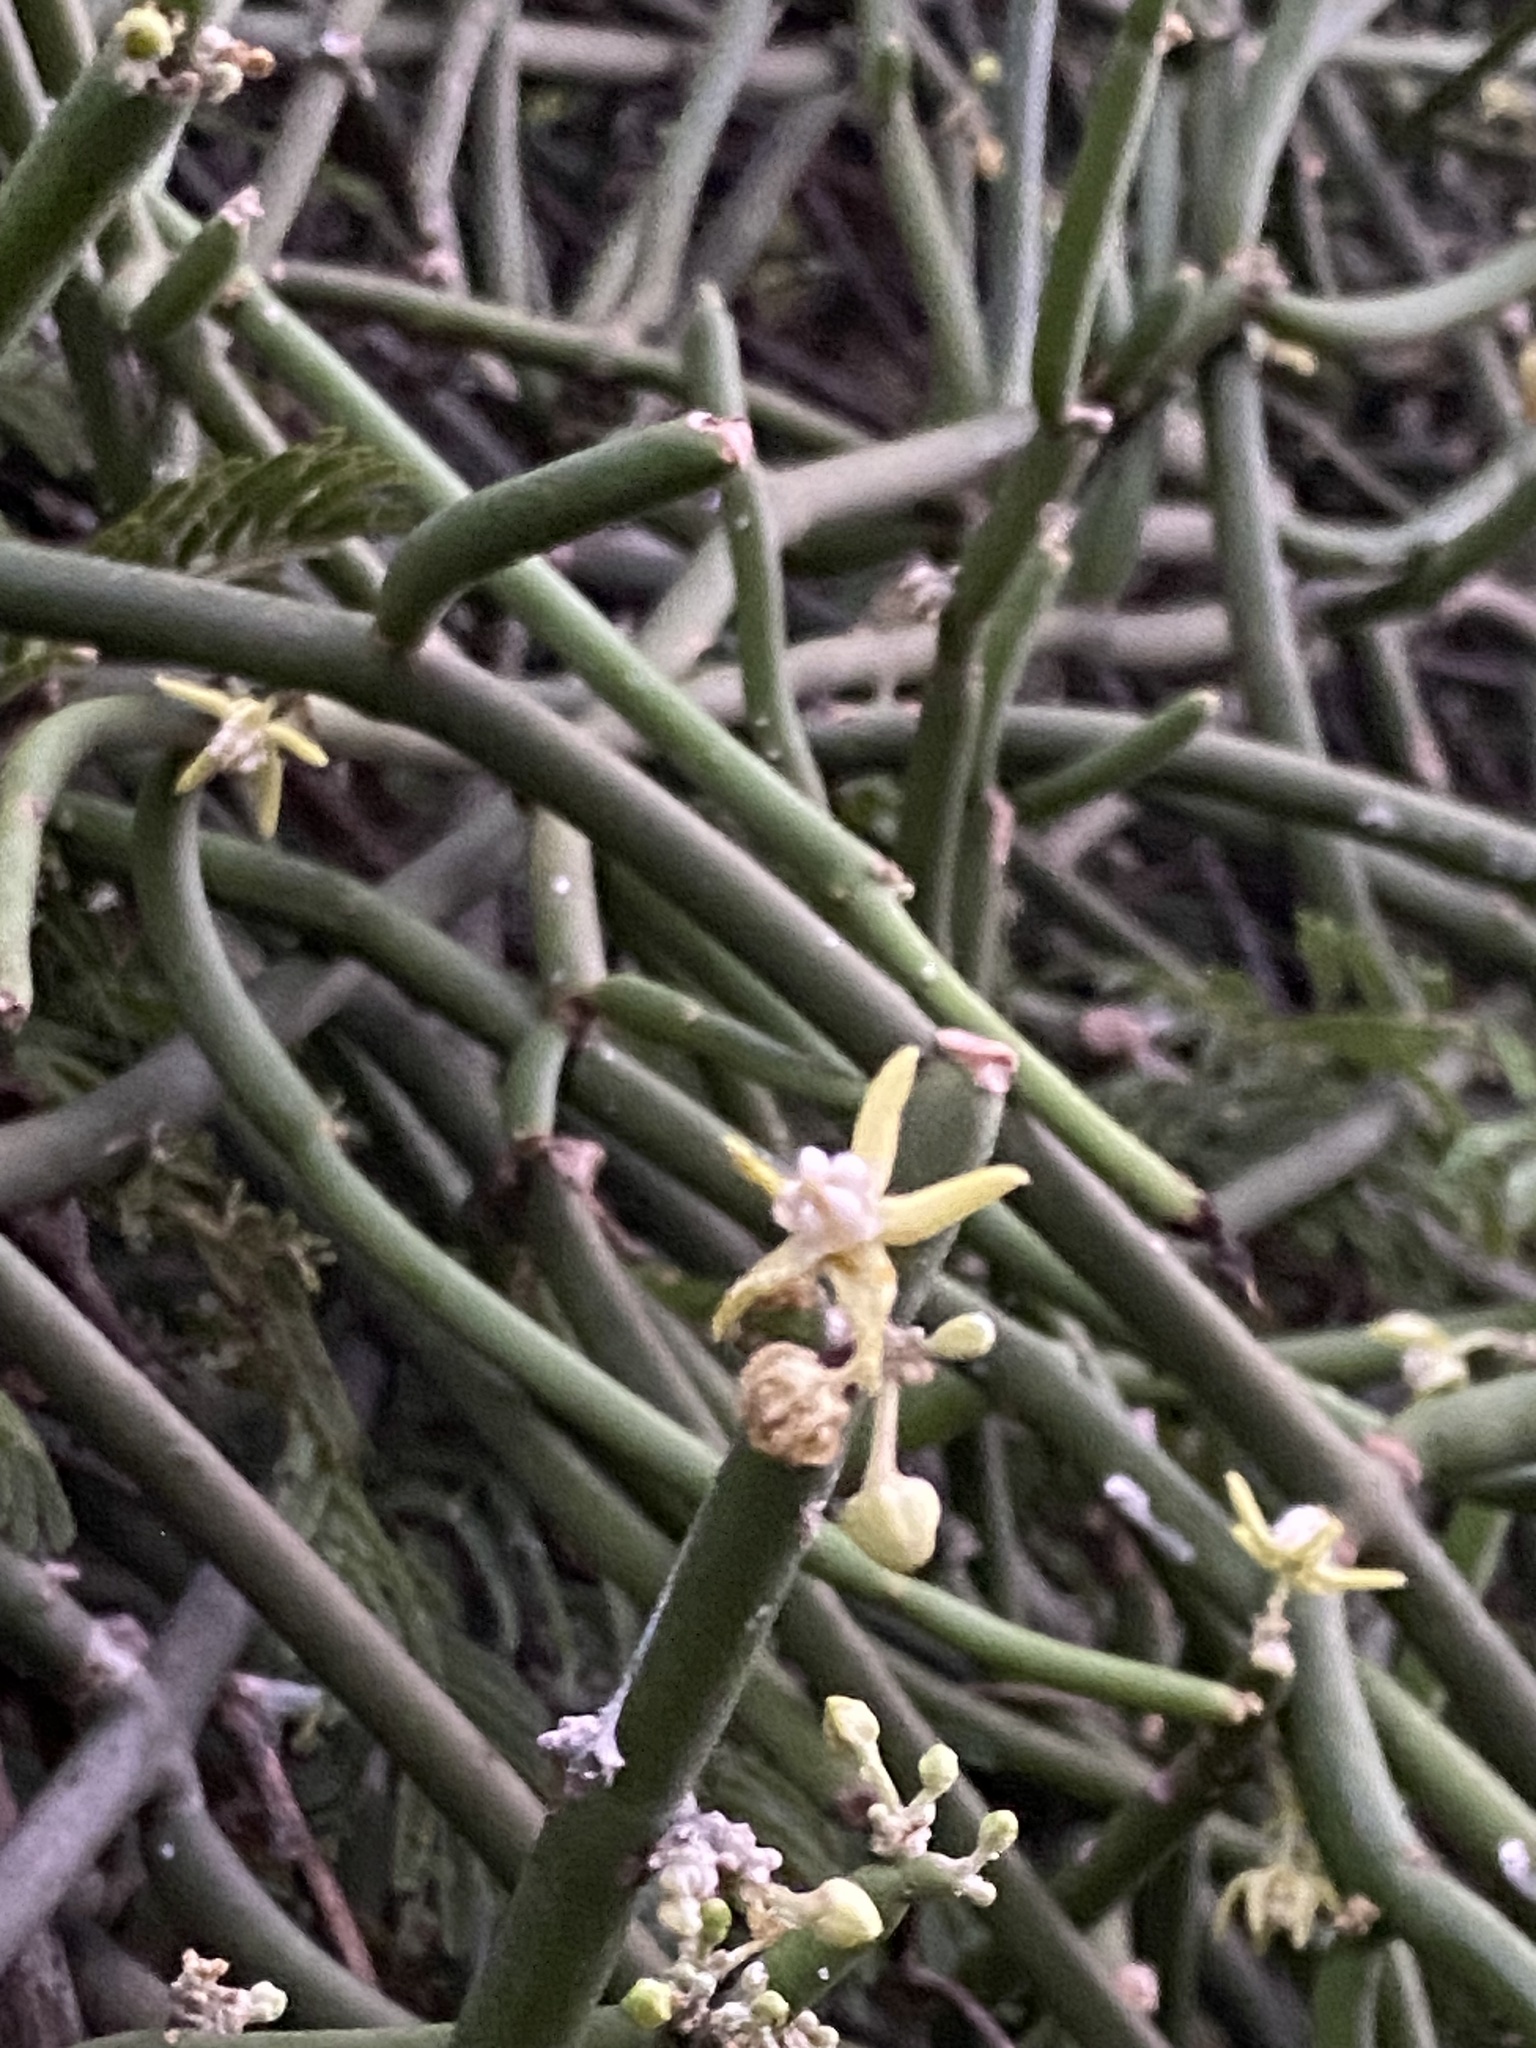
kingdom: Plantae
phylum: Tracheophyta
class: Magnoliopsida
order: Gentianales
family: Apocynaceae
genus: Cynanchum
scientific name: Cynanchum viminale
